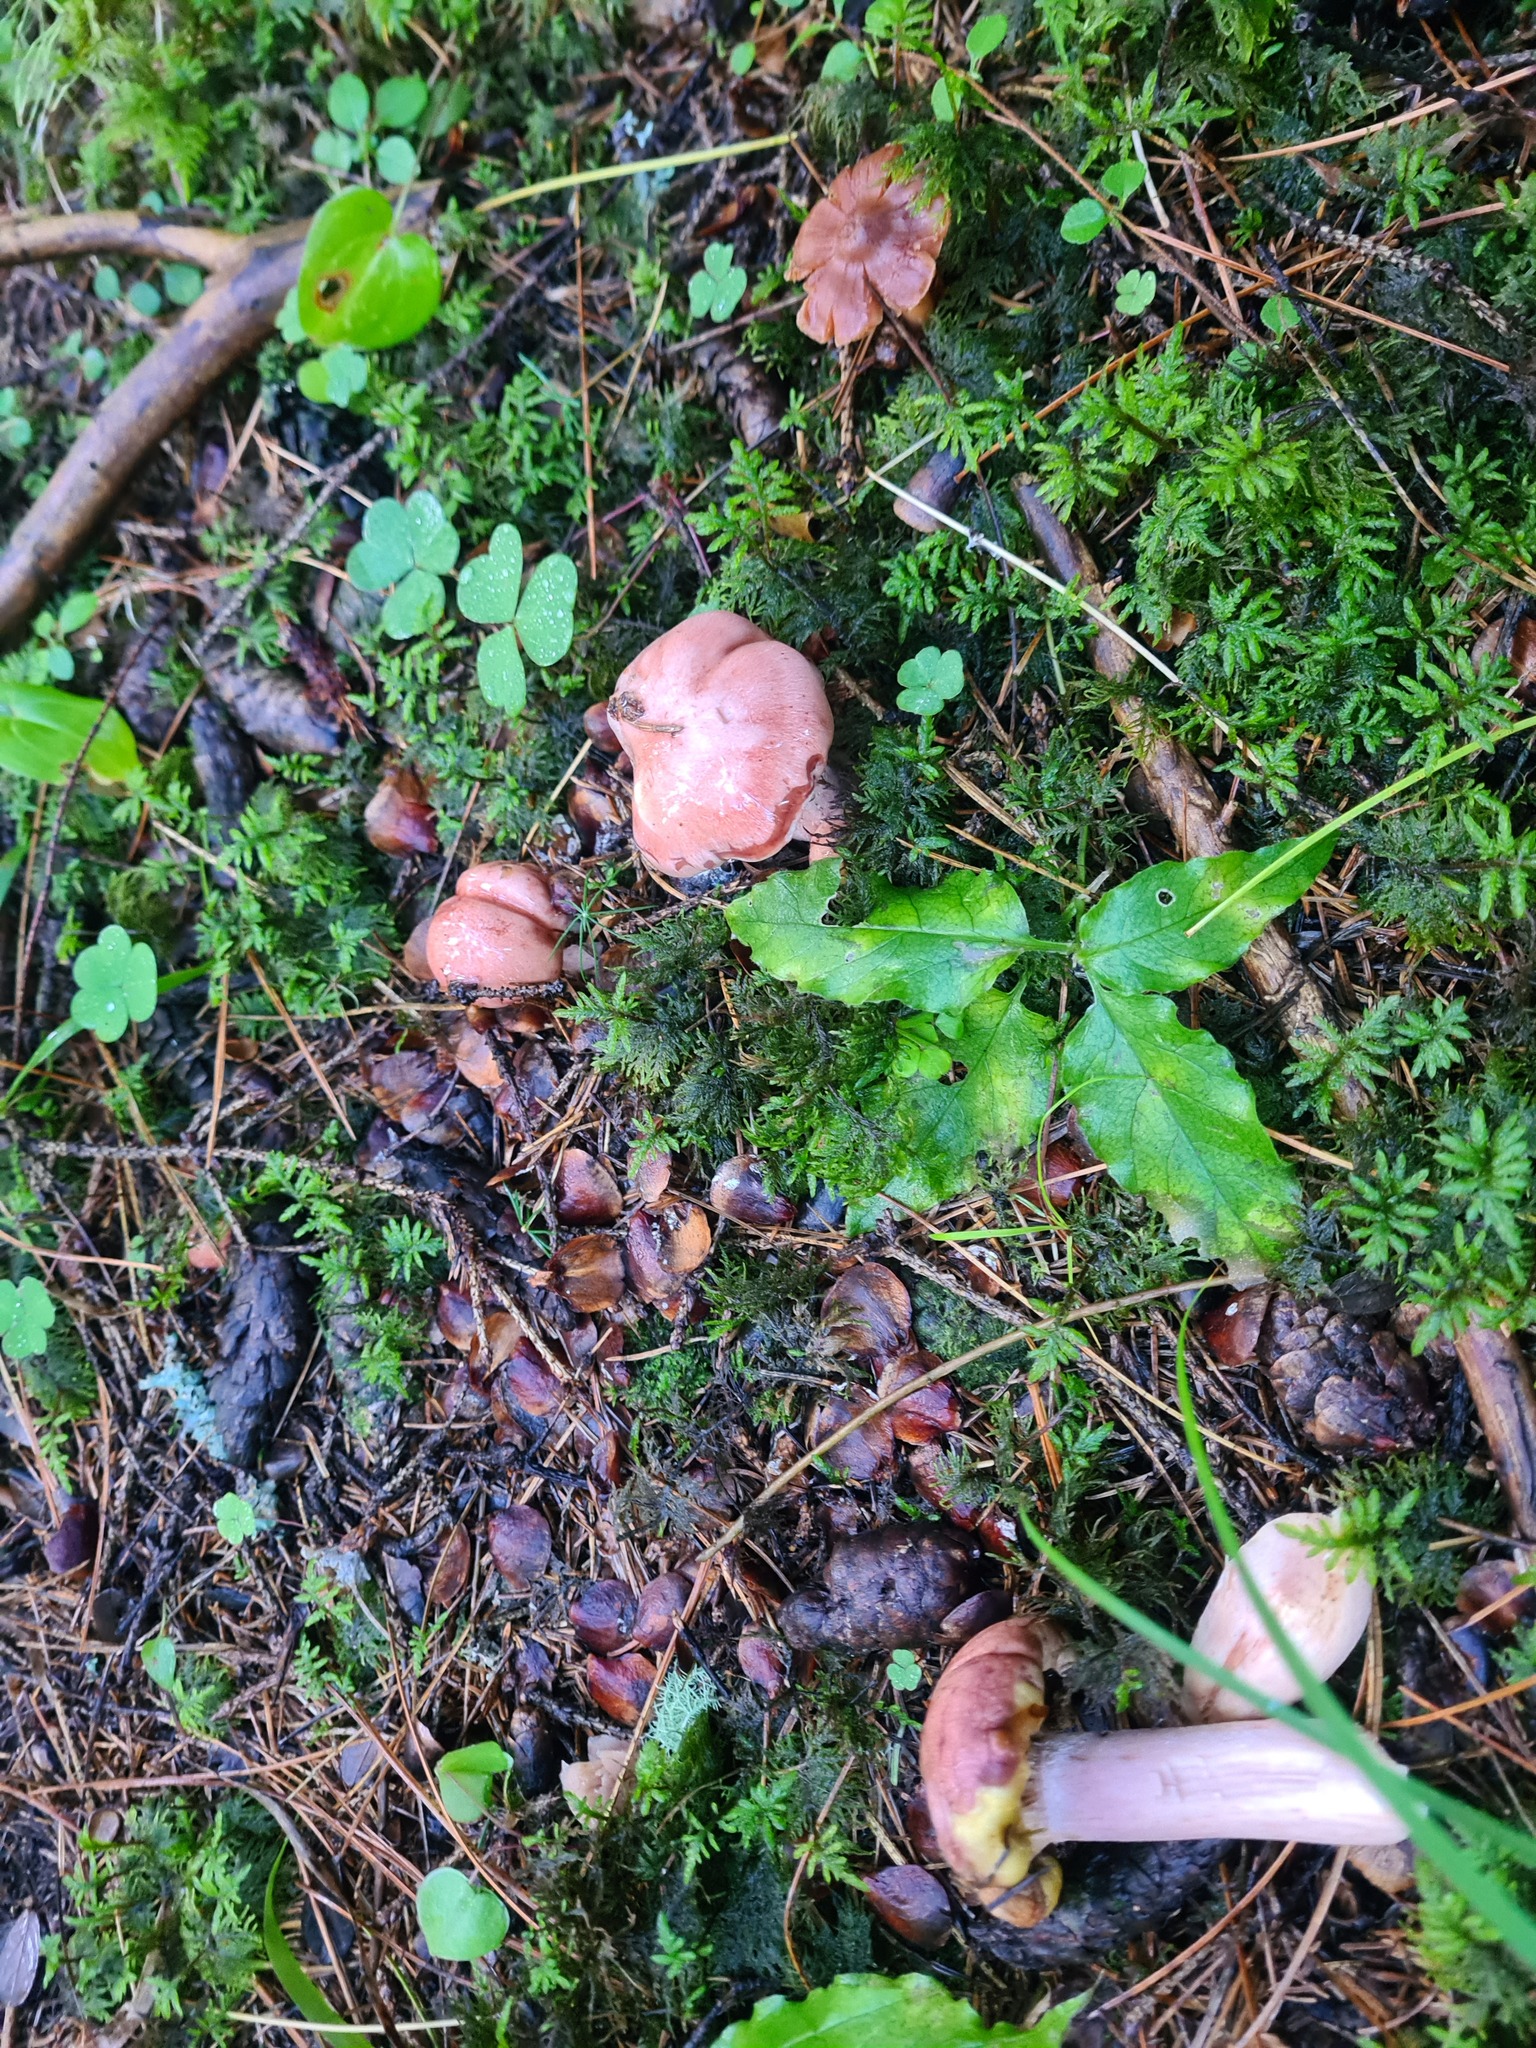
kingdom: Fungi
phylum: Basidiomycota
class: Agaricomycetes
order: Boletales
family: Gomphidiaceae
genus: Gomphidius
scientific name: Gomphidius roseus
